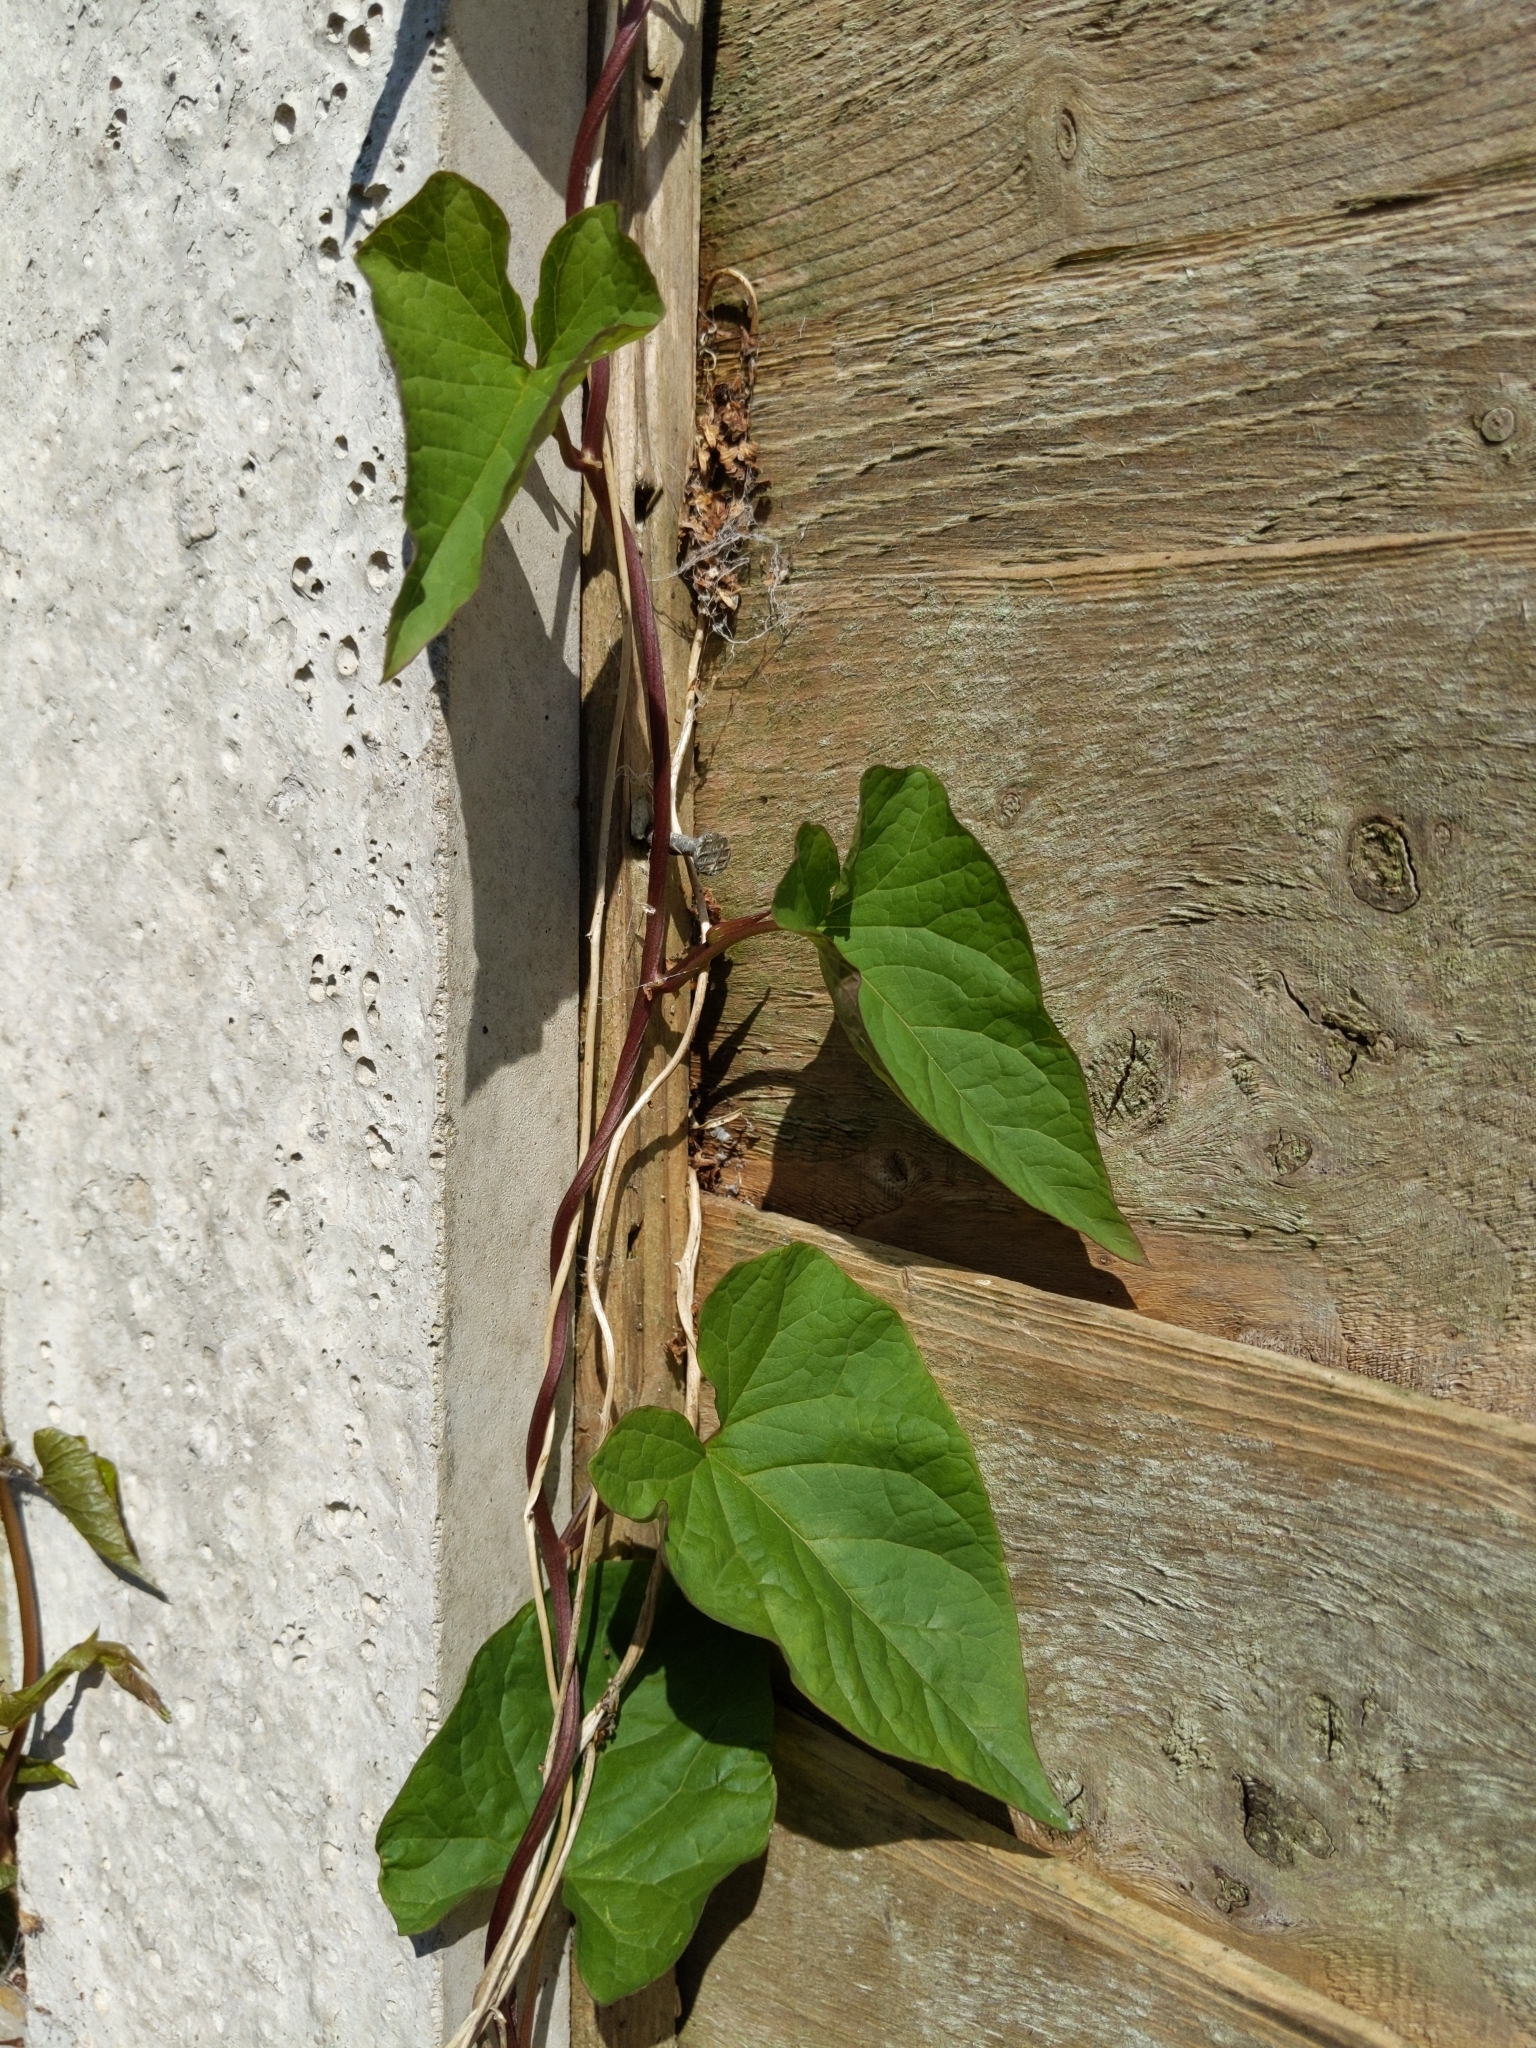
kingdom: Plantae
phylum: Tracheophyta
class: Magnoliopsida
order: Solanales
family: Convolvulaceae
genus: Calystegia
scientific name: Calystegia
